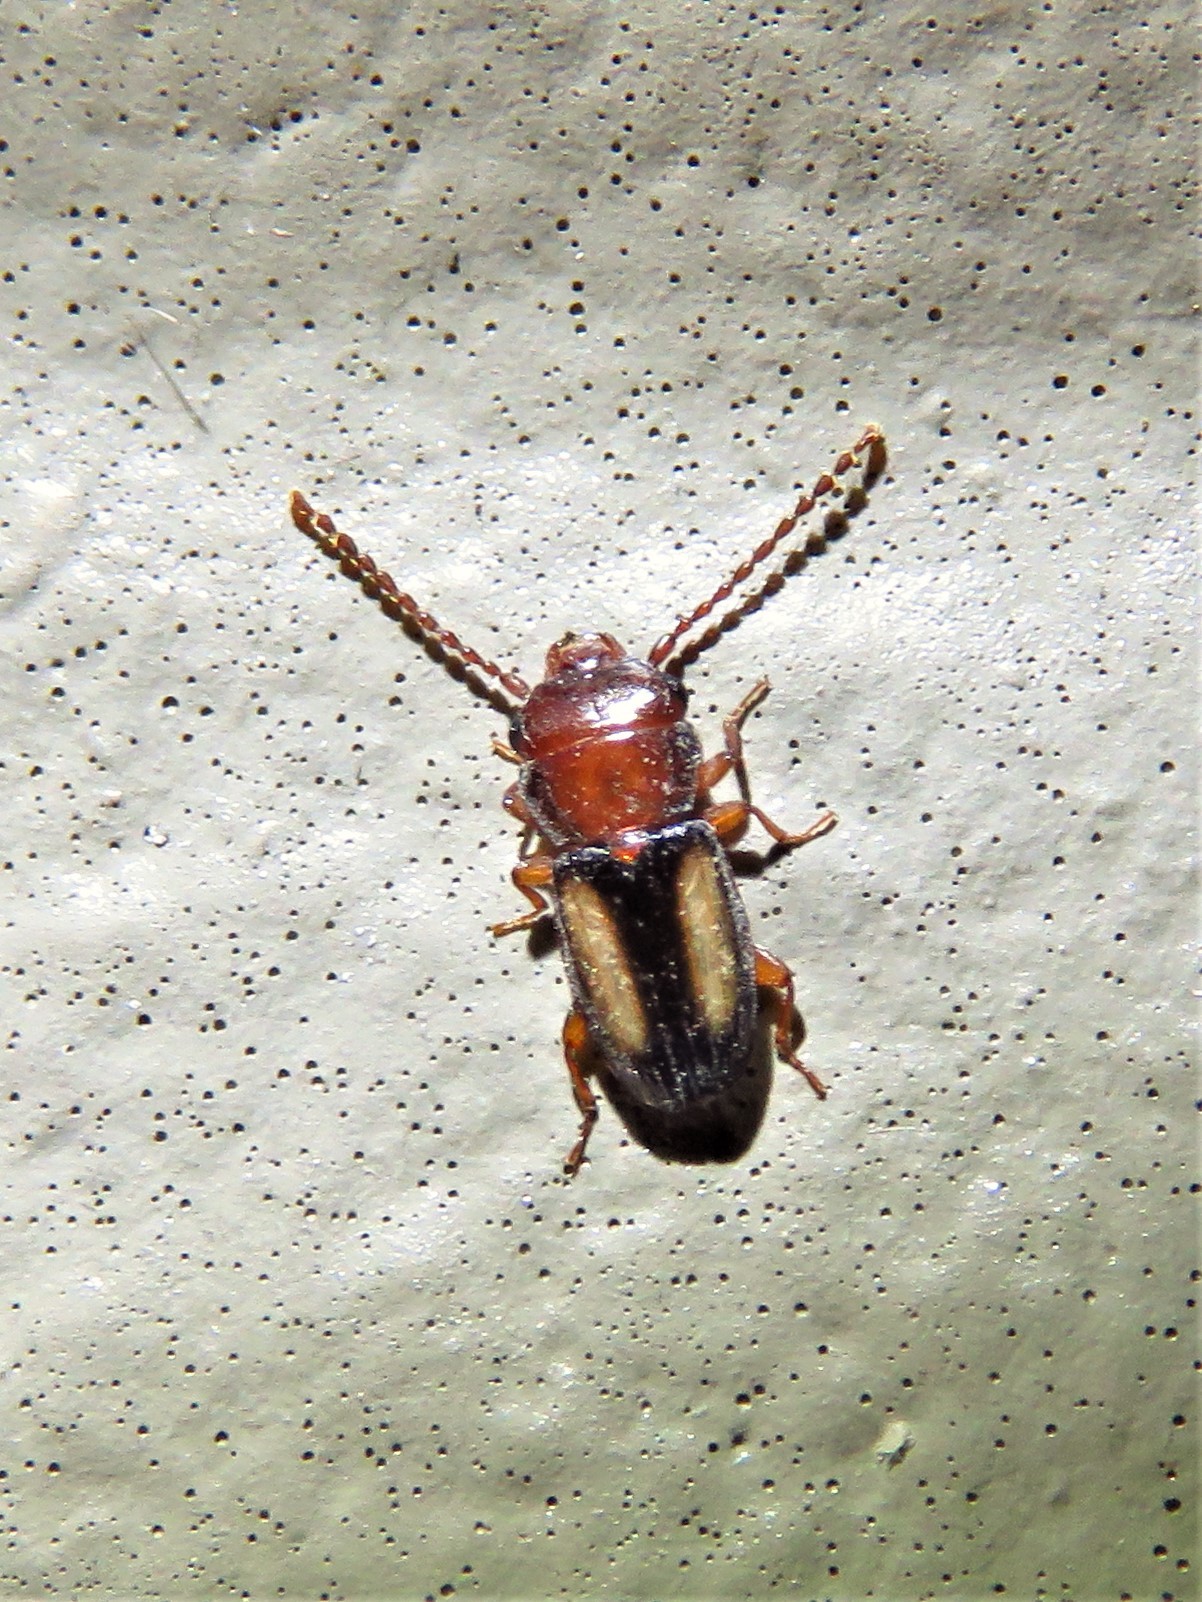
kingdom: Animalia
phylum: Arthropoda
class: Insecta
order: Coleoptera
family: Laemophloeidae
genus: Laemophloeus
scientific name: Laemophloeus terminalis
